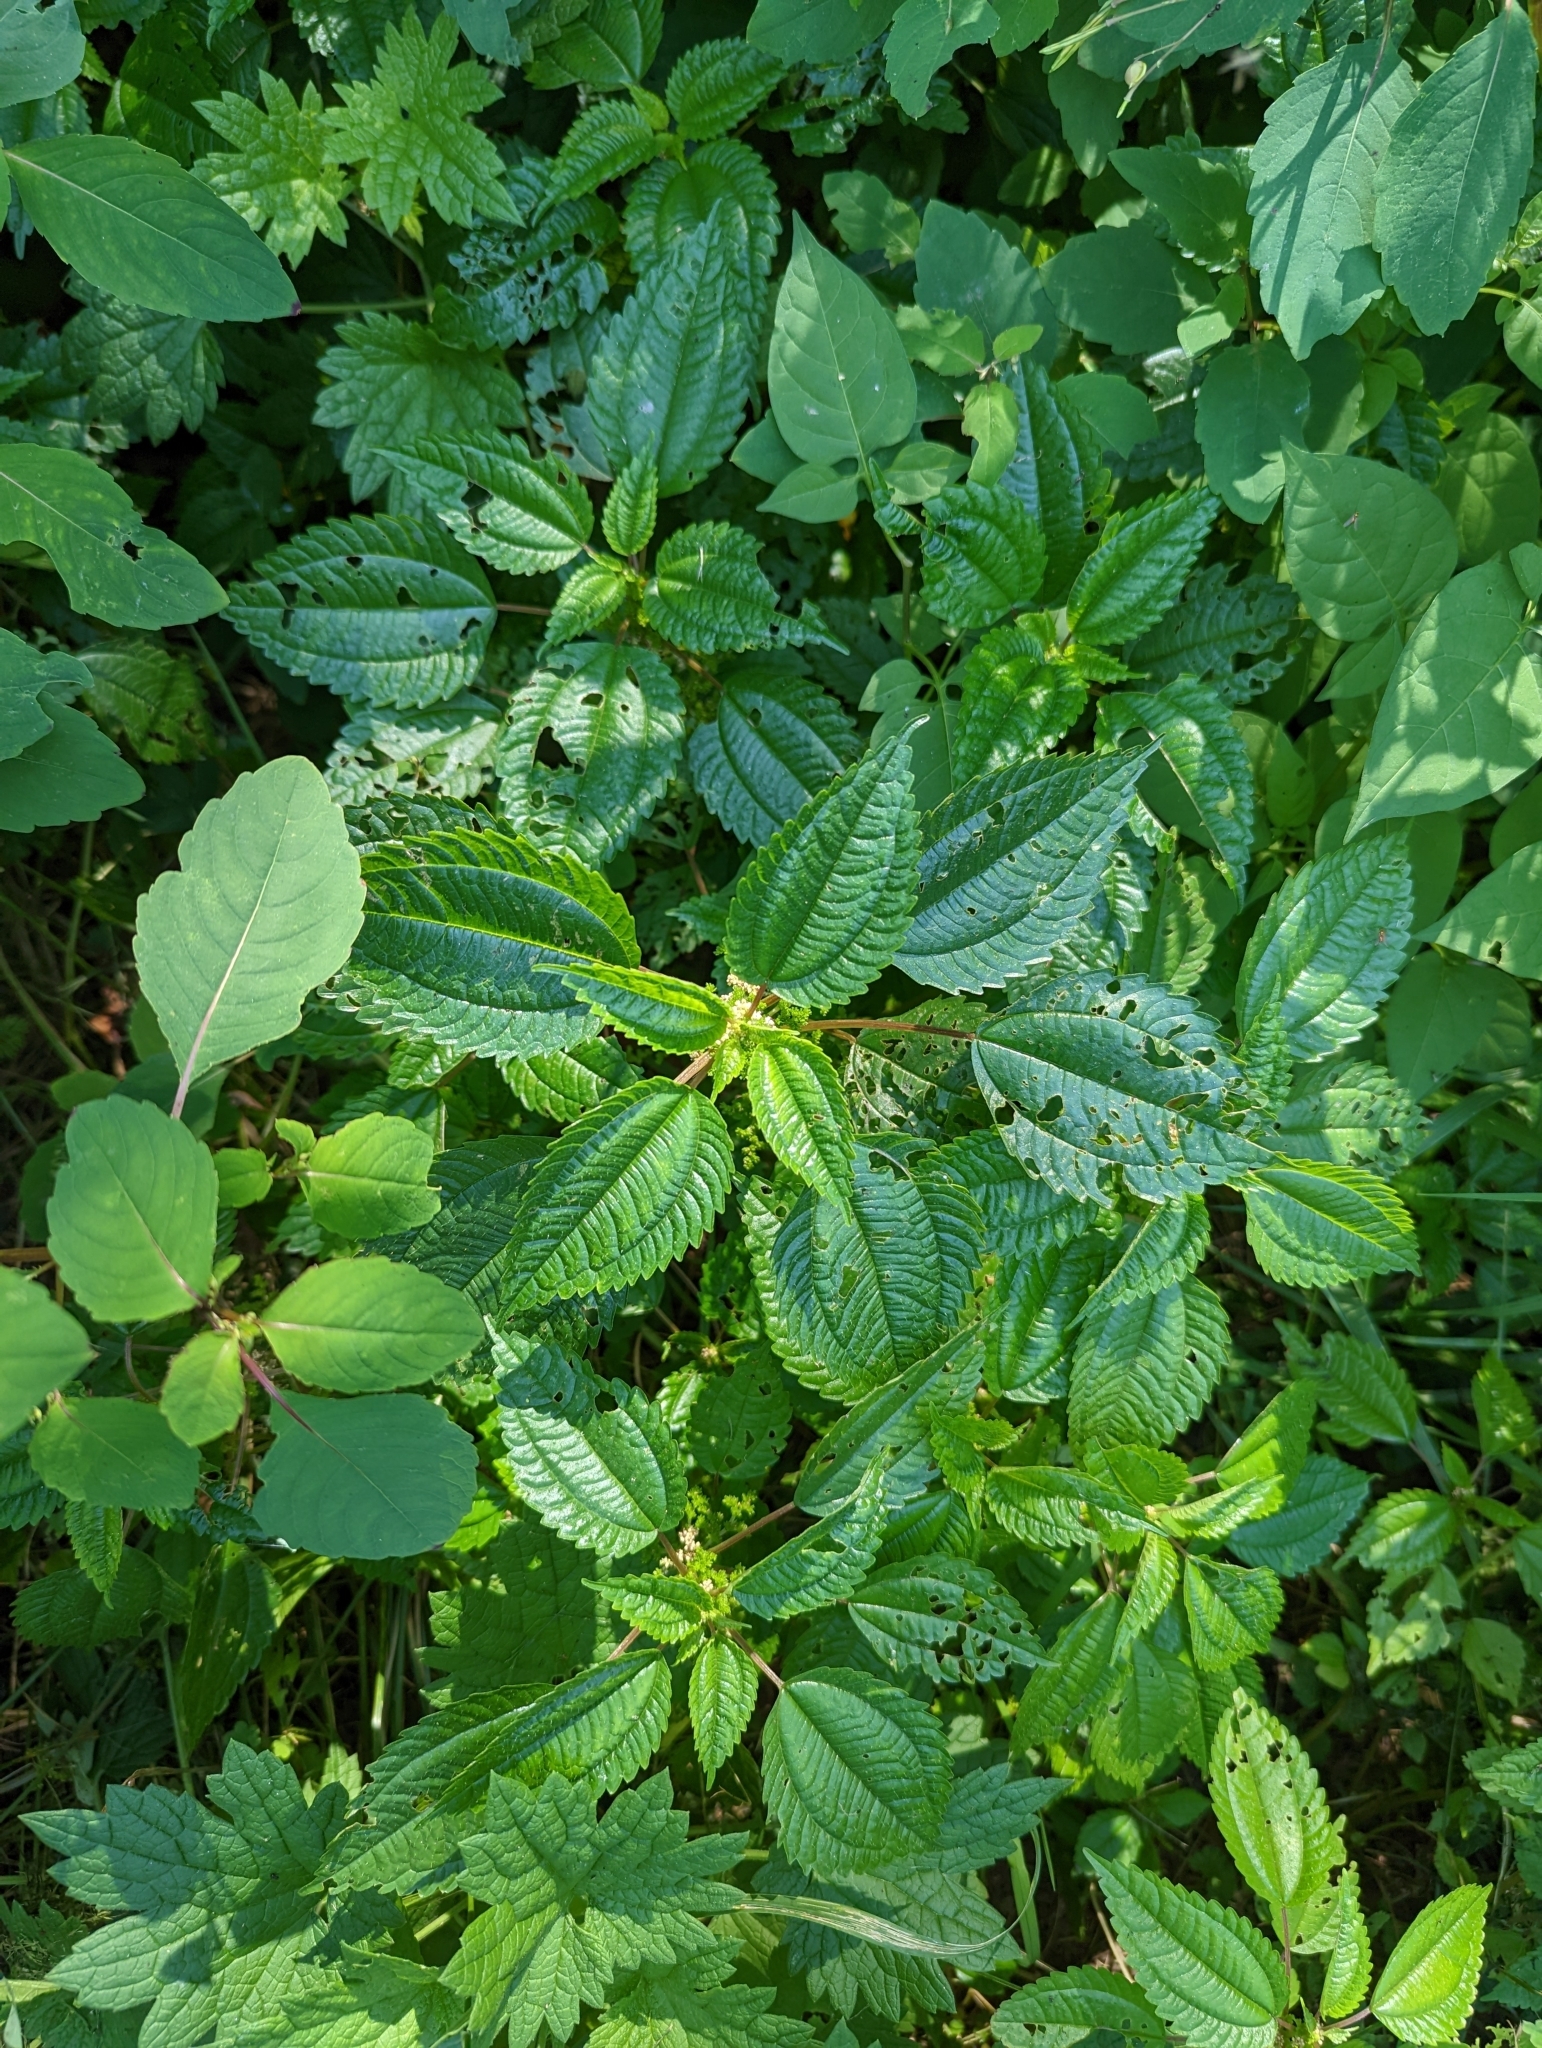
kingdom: Plantae
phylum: Tracheophyta
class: Magnoliopsida
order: Rosales
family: Urticaceae
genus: Pilea
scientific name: Pilea pumila
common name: Clearweed
